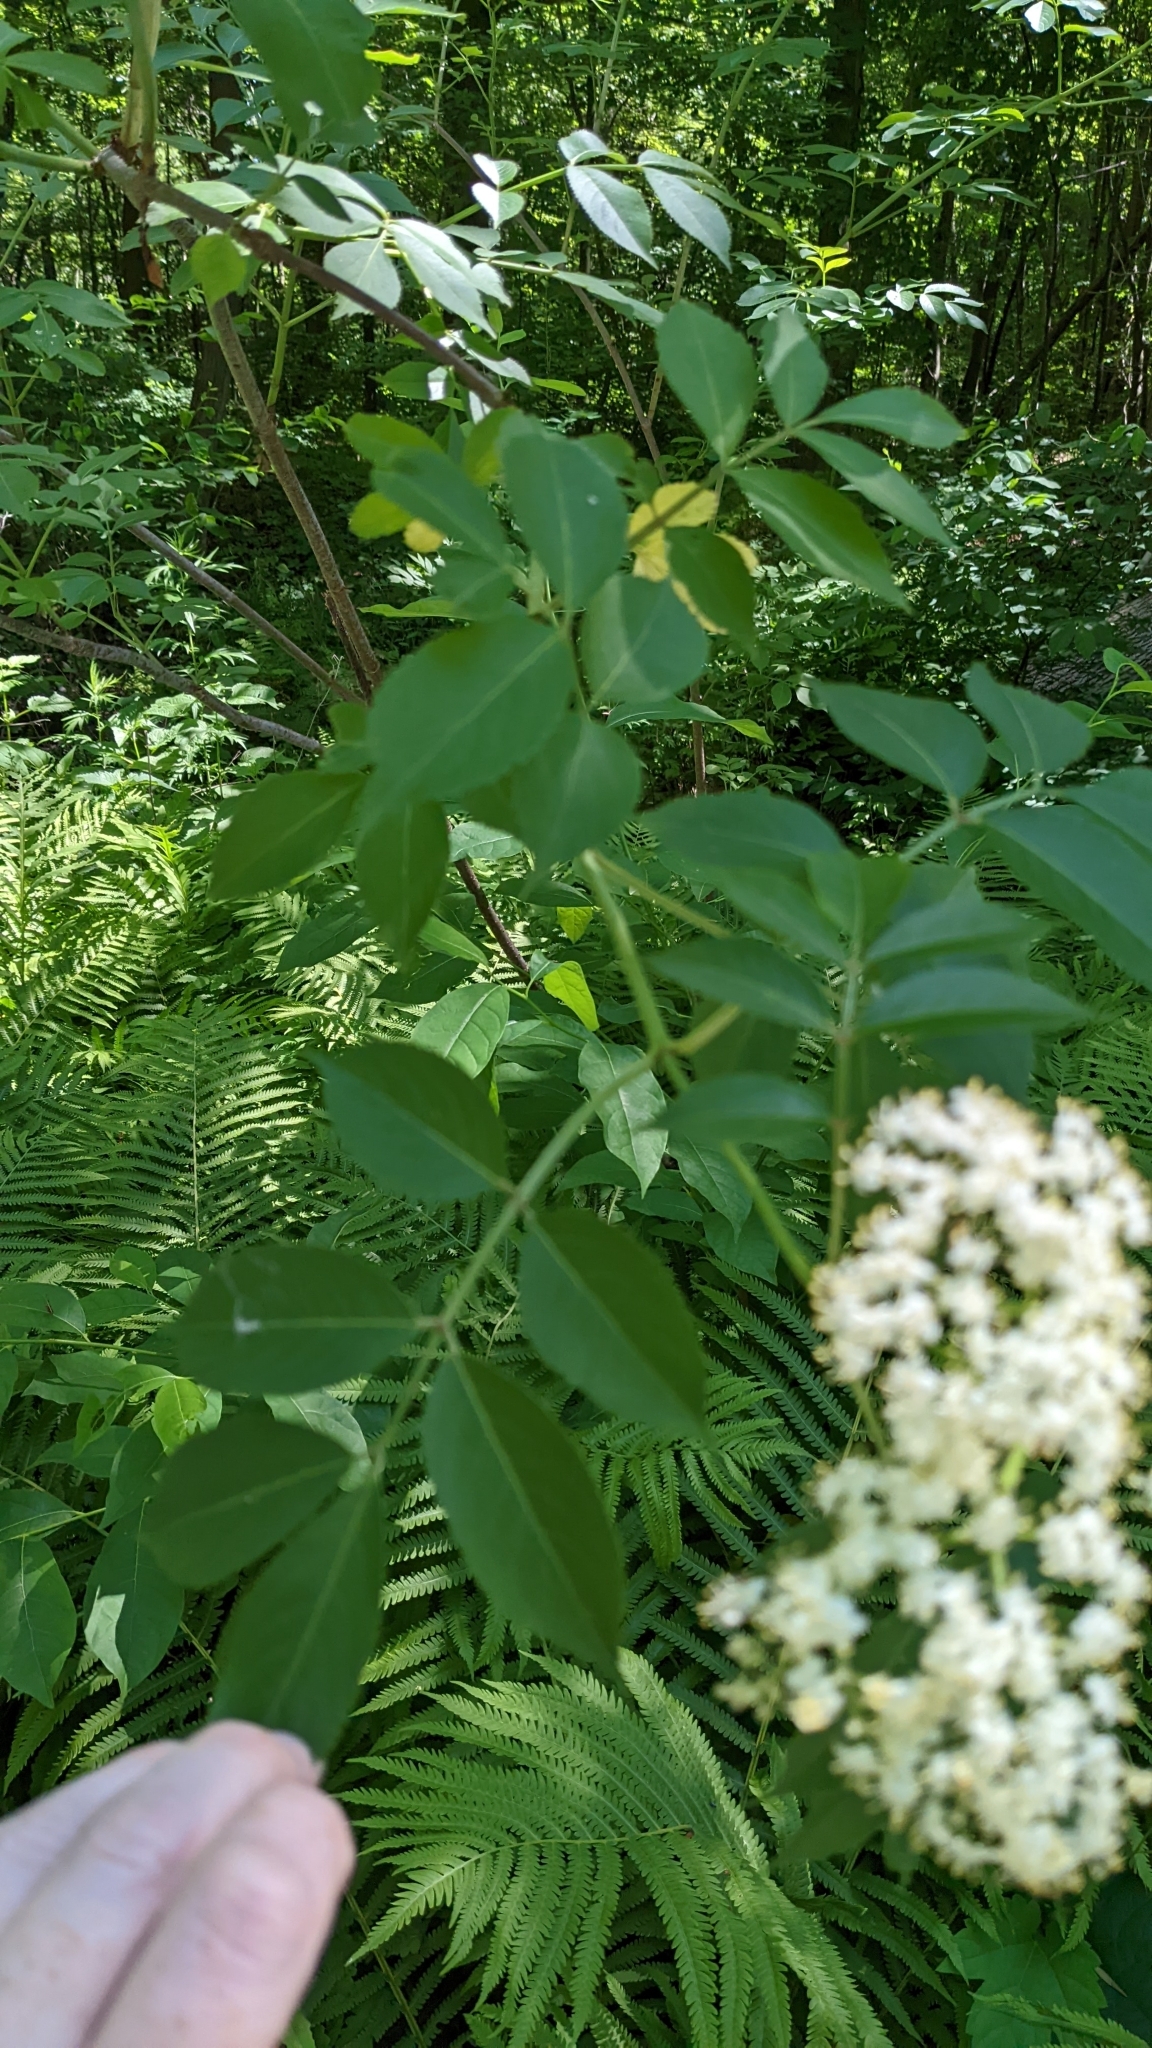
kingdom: Plantae
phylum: Tracheophyta
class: Magnoliopsida
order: Dipsacales
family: Viburnaceae
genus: Sambucus
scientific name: Sambucus canadensis
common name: American elder
